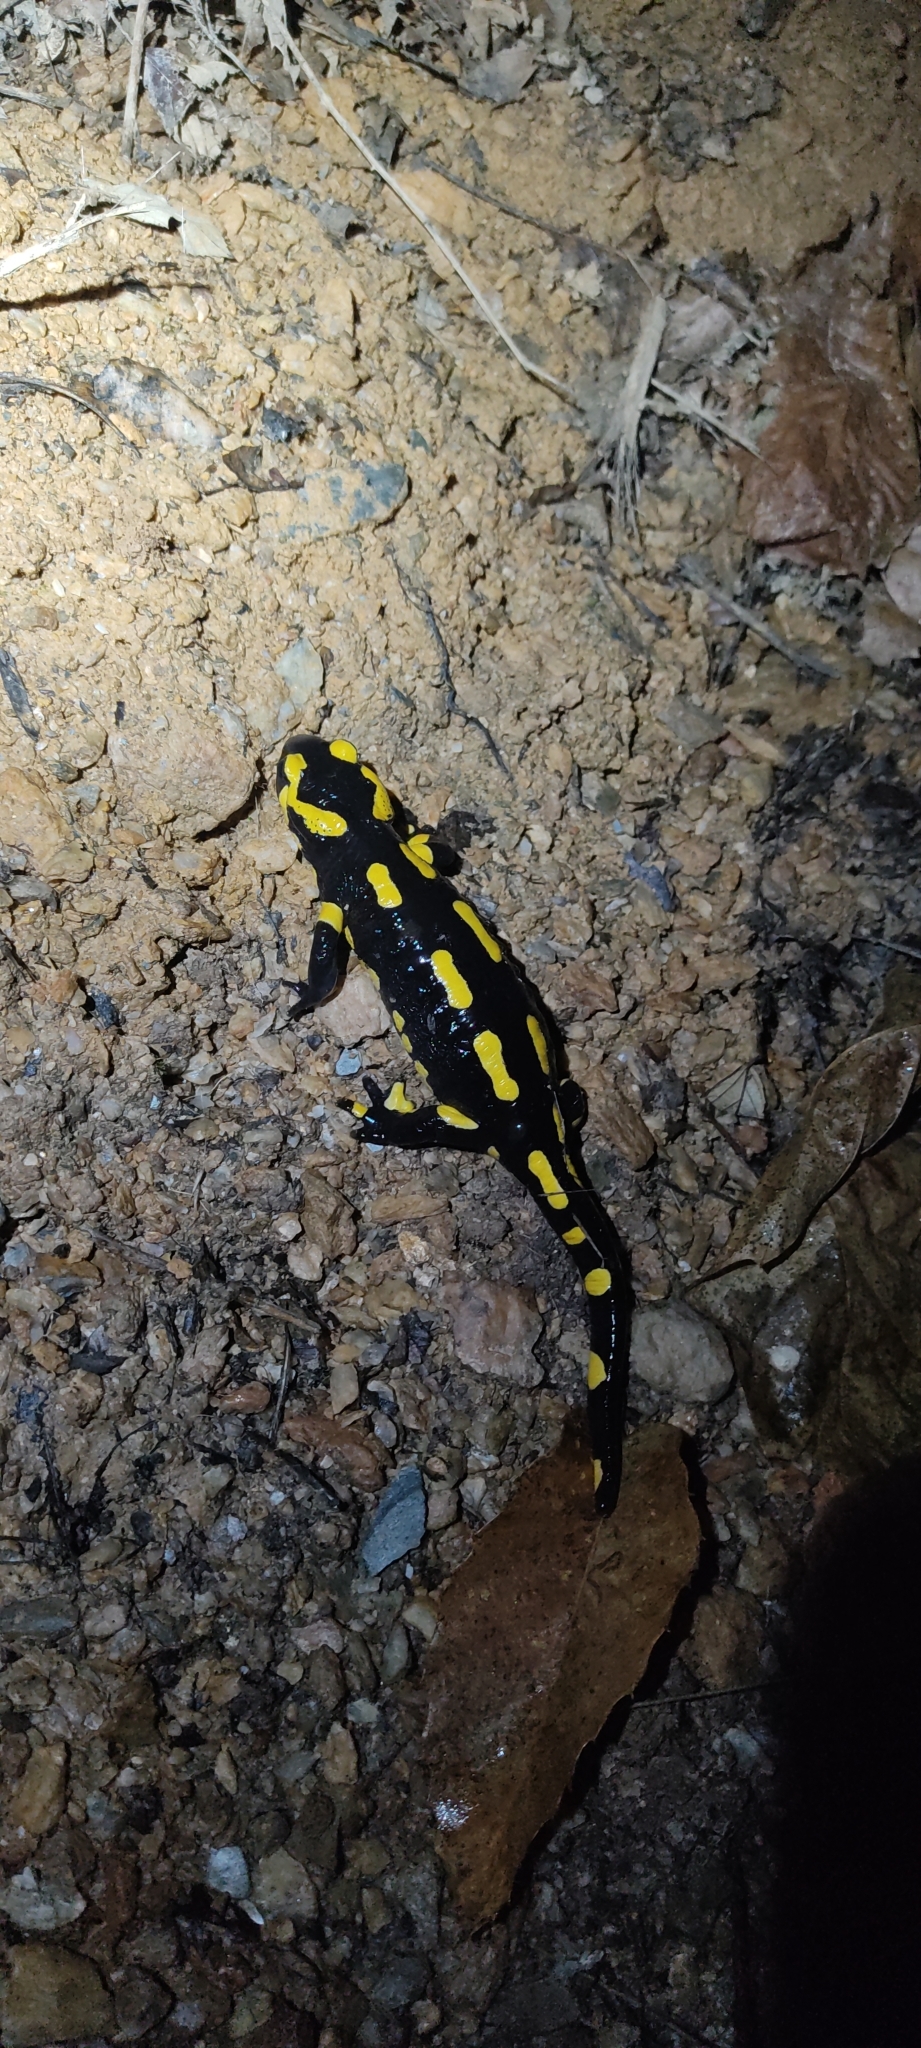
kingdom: Animalia
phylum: Chordata
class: Amphibia
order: Caudata
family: Salamandridae
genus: Salamandra
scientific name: Salamandra salamandra
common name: Fire salamander
